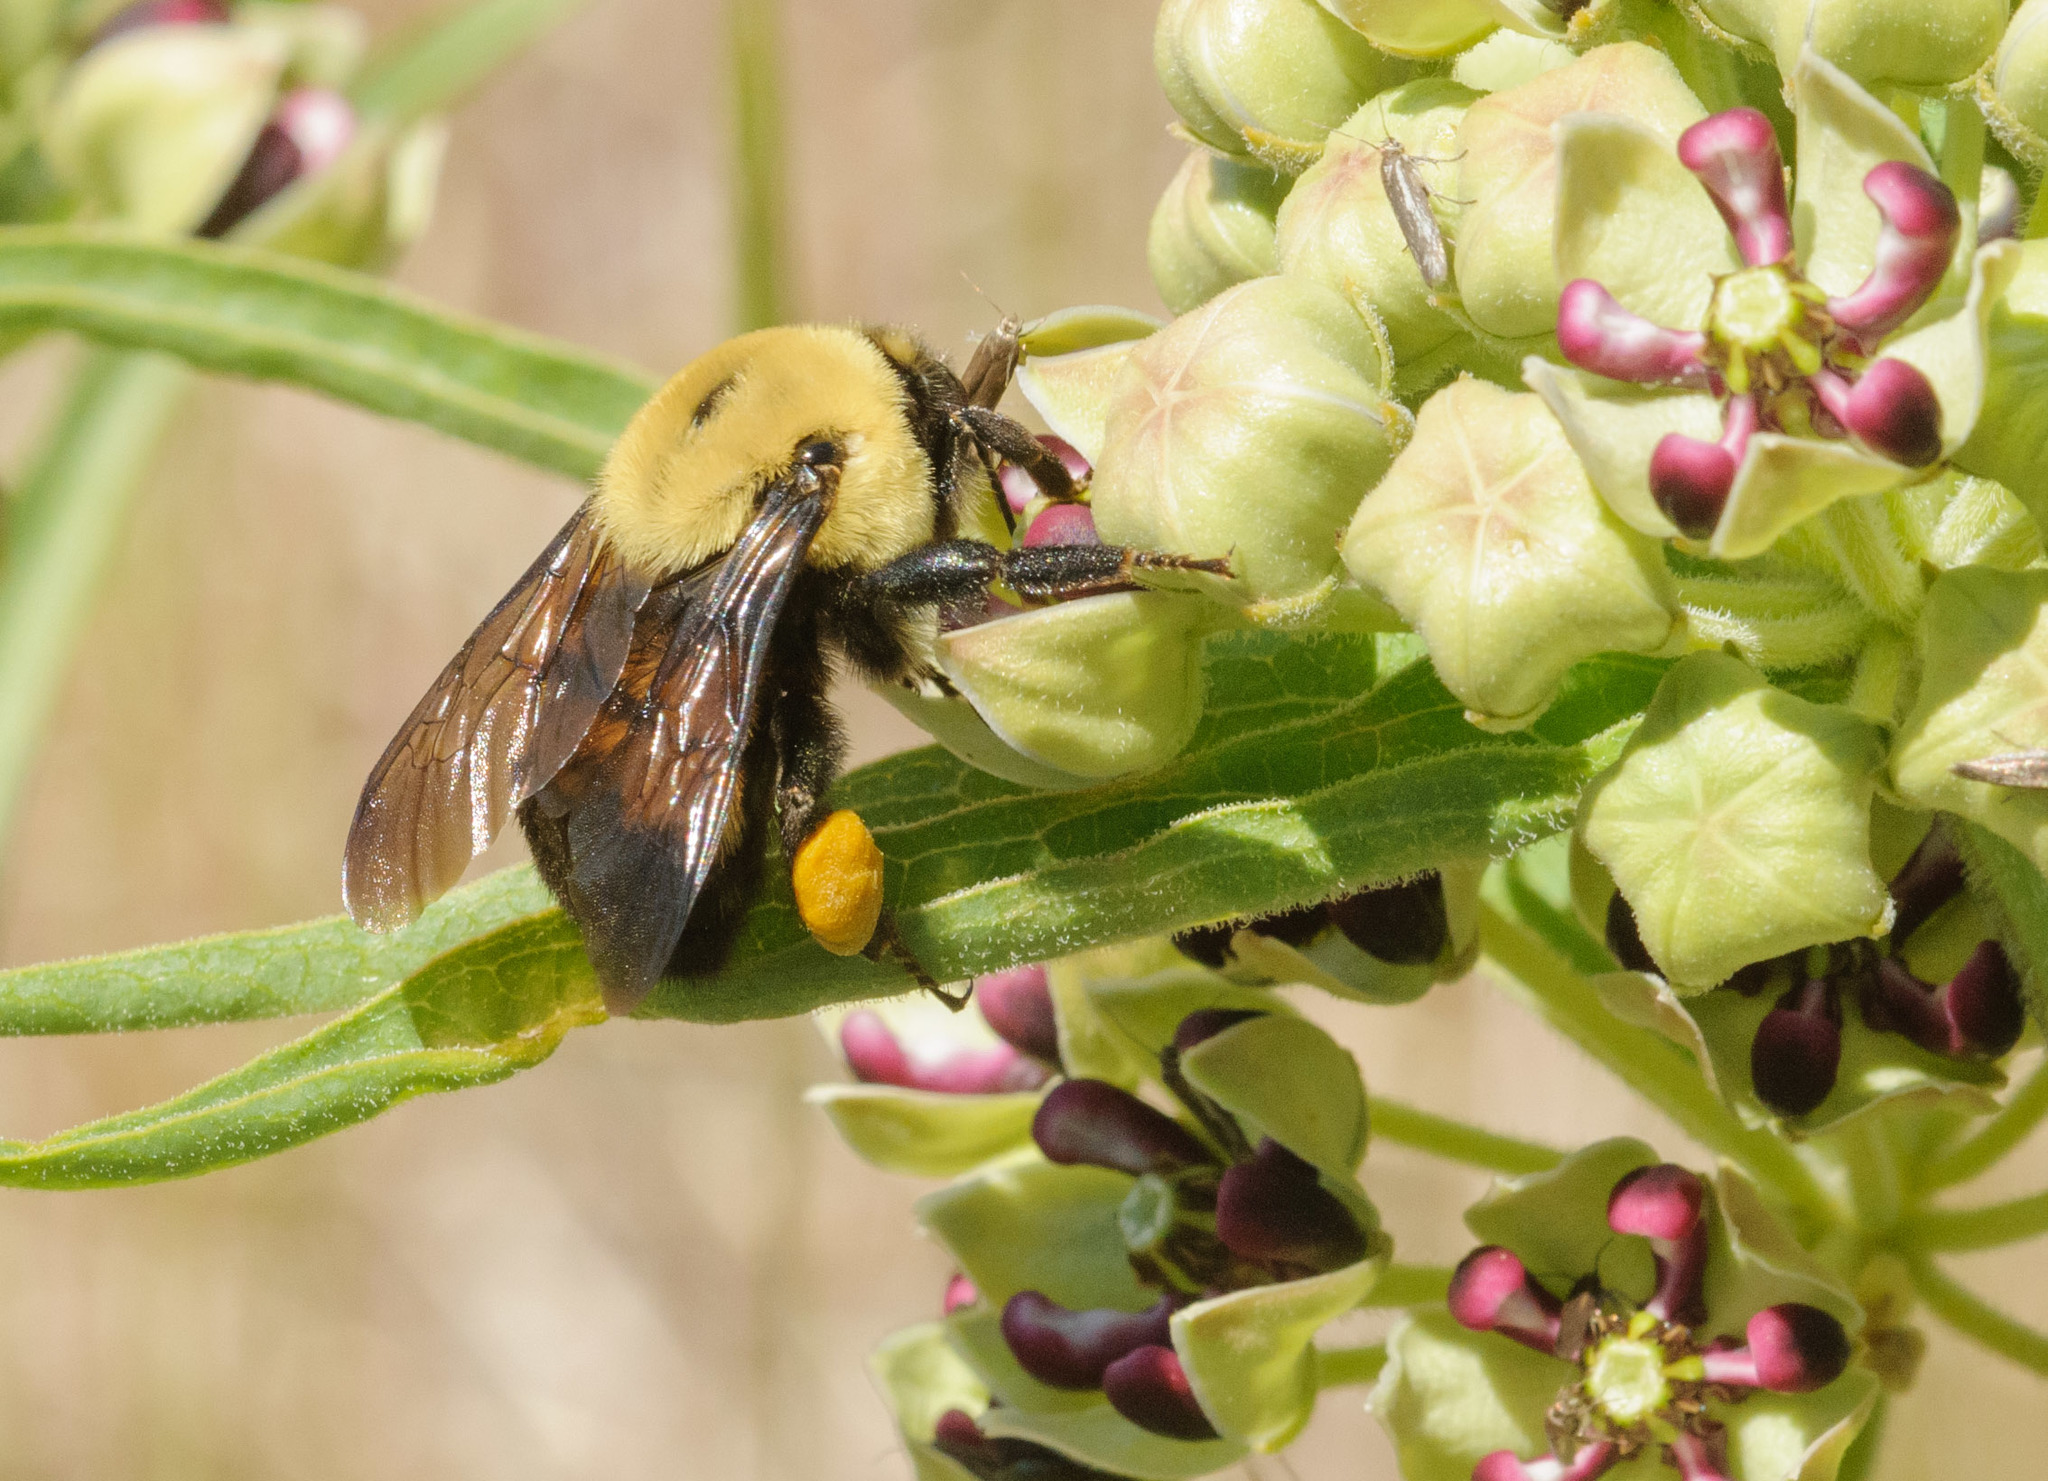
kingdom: Animalia
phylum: Arthropoda
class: Insecta
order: Hymenoptera
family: Apidae
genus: Bombus
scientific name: Bombus griseocollis
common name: Brown-belted bumble bee
